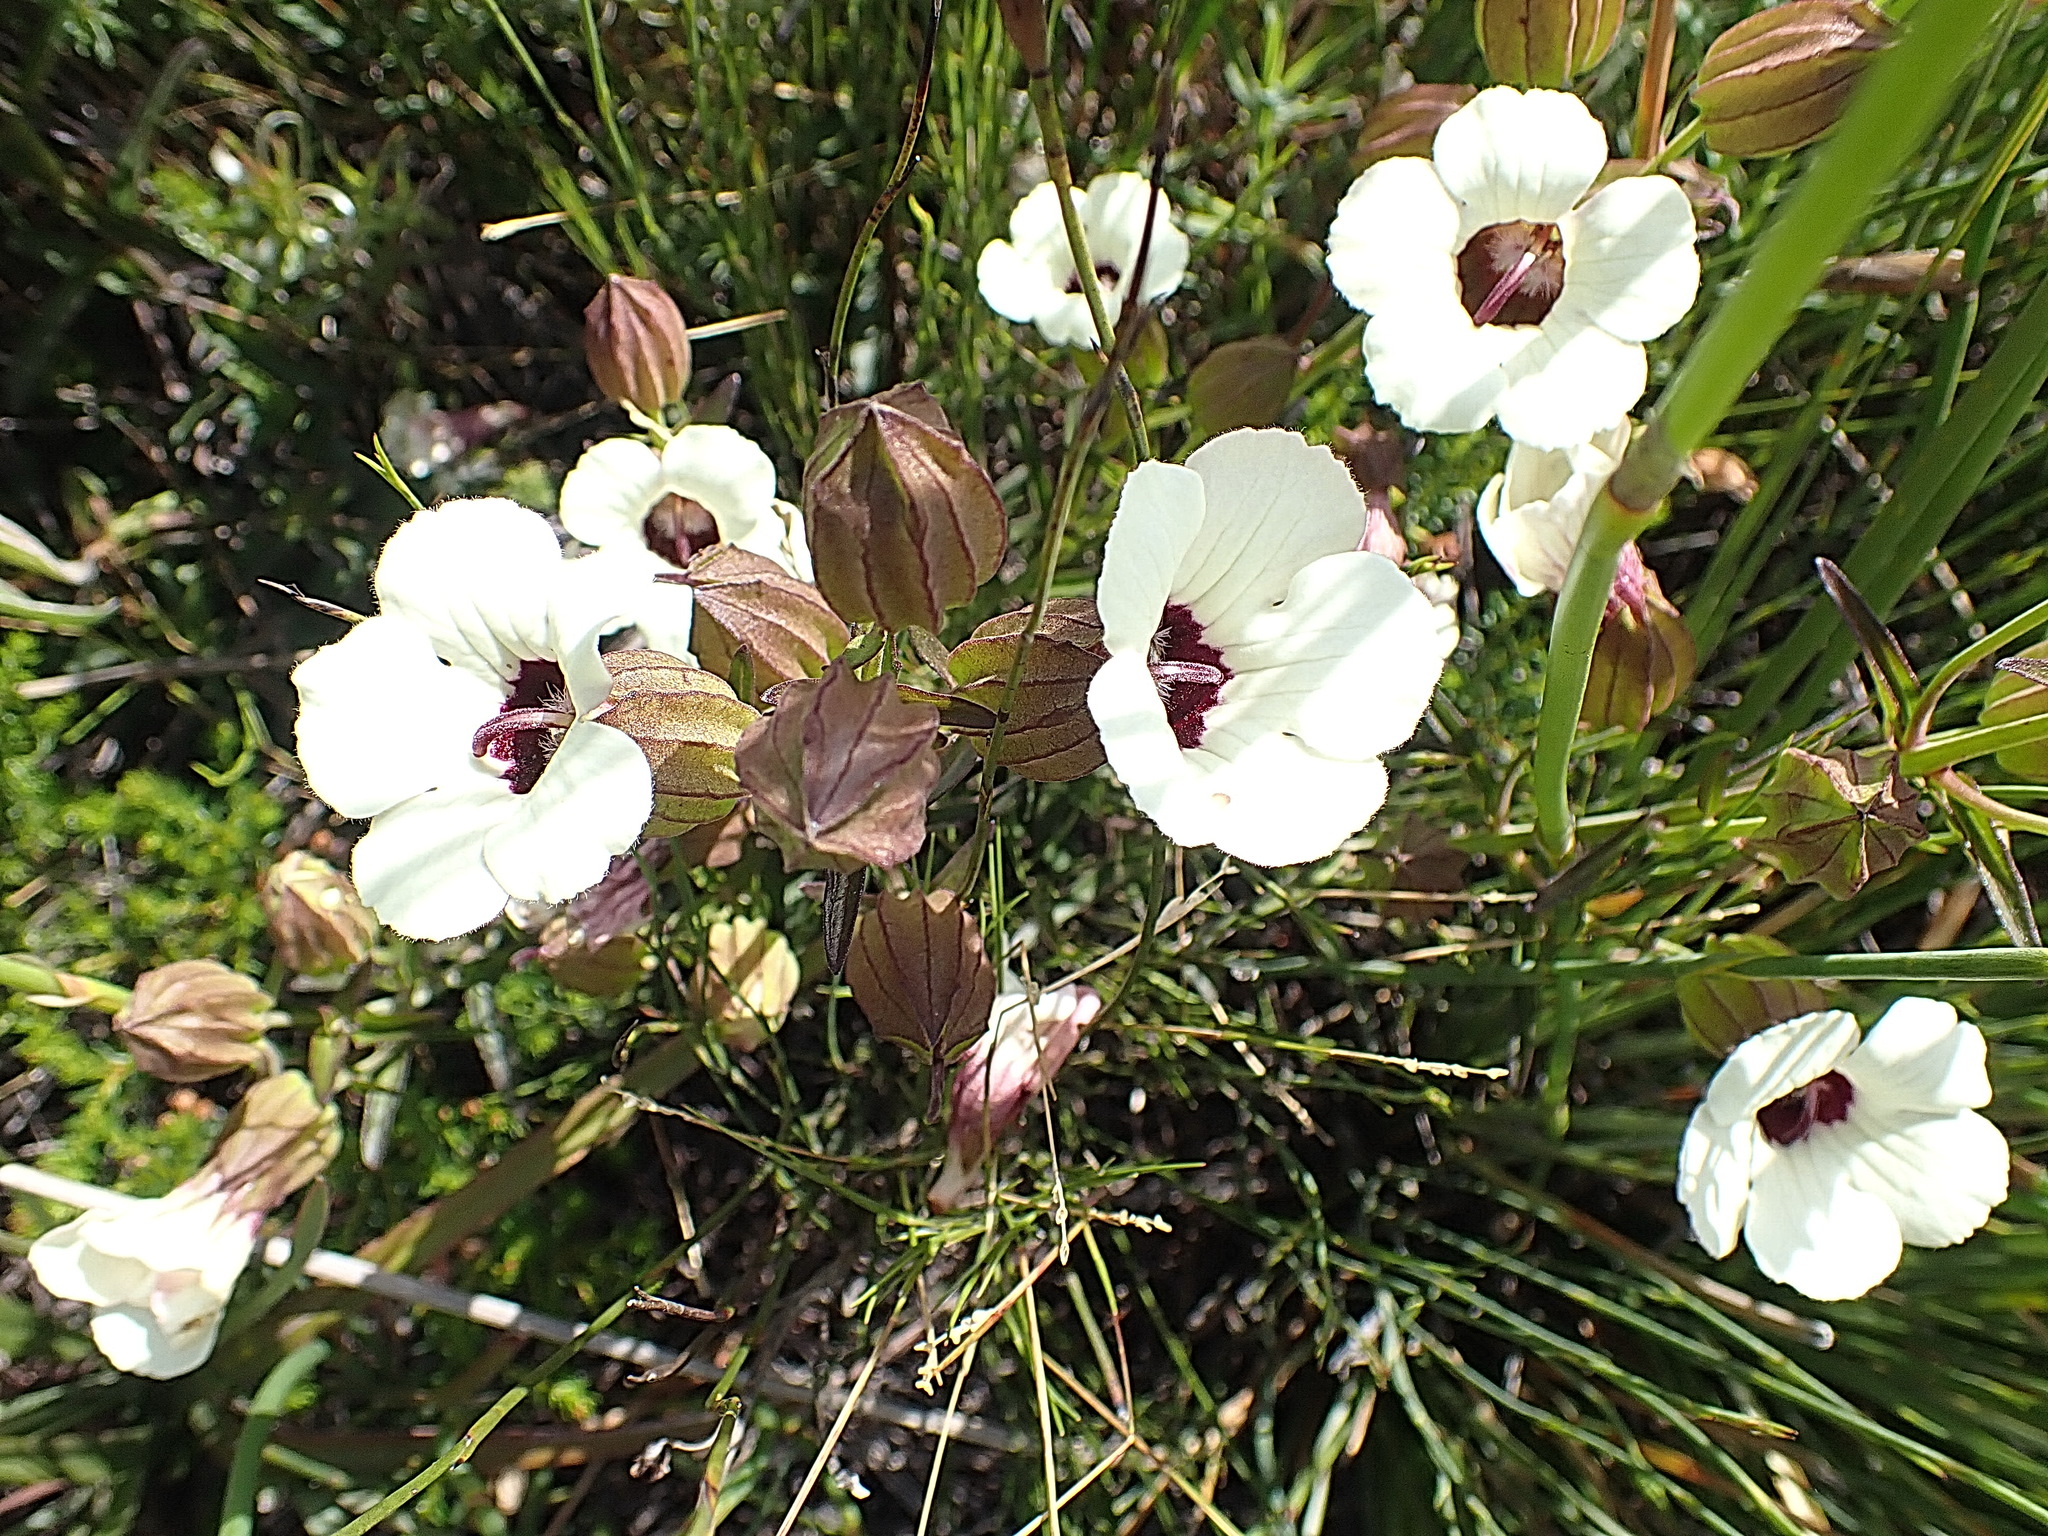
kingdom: Plantae
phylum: Tracheophyta
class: Magnoliopsida
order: Lamiales
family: Orobanchaceae
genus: Melasma
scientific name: Melasma scabrum
